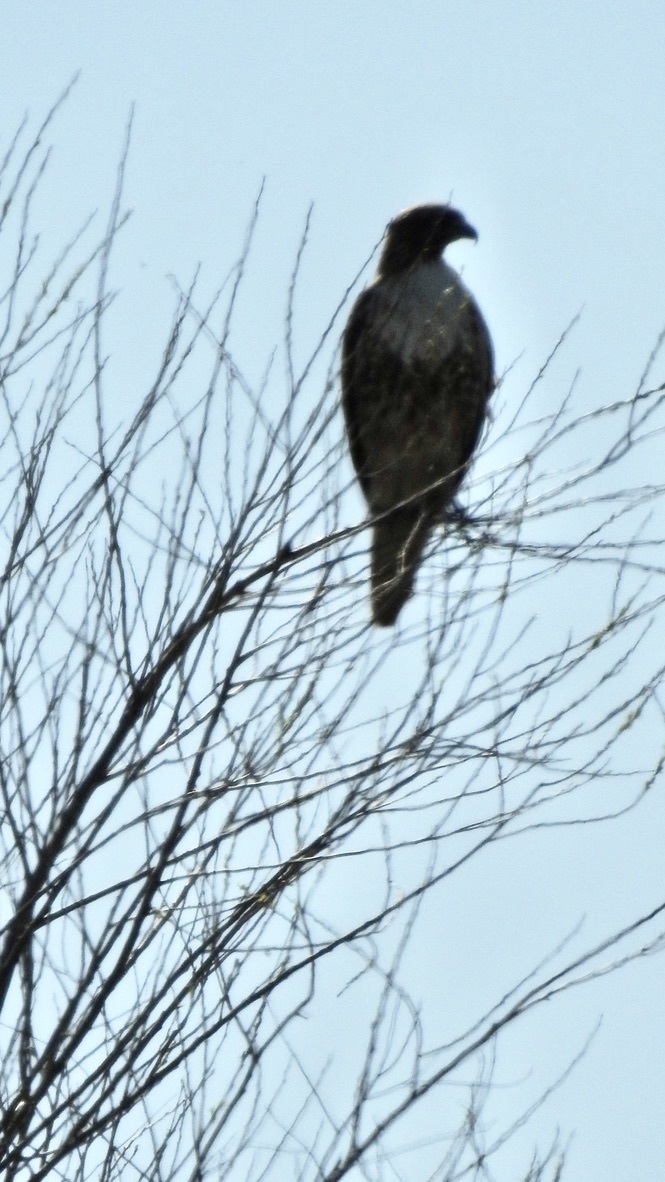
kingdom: Animalia
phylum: Chordata
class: Aves
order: Accipitriformes
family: Accipitridae
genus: Buteo
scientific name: Buteo jamaicensis
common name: Red-tailed hawk
